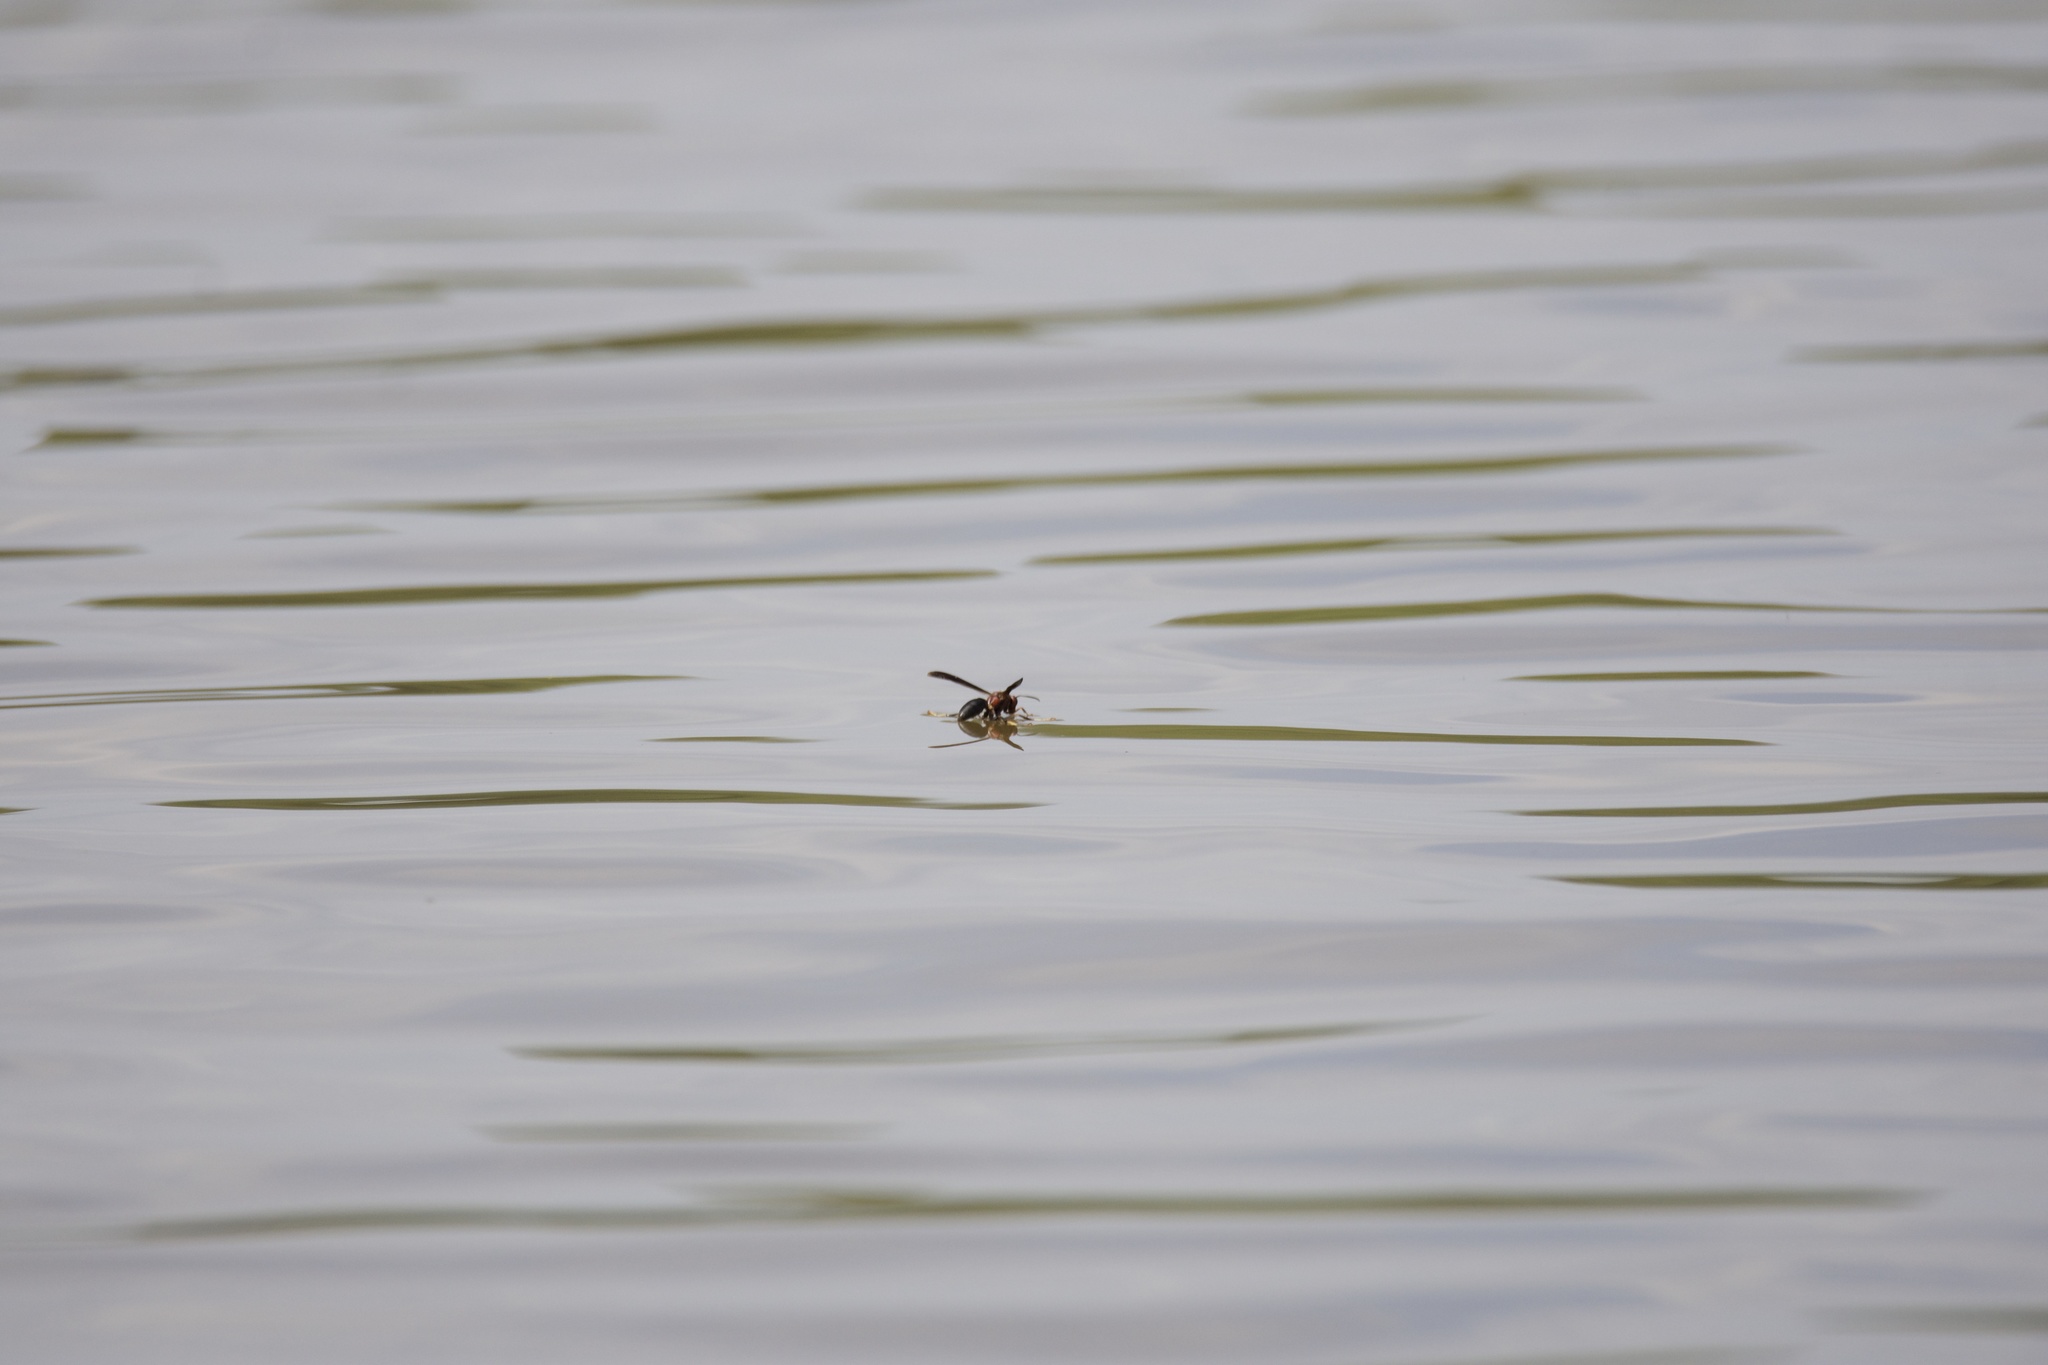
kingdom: Animalia
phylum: Arthropoda
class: Insecta
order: Hymenoptera
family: Eumenidae
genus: Polistes
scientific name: Polistes metricus
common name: Metric paper wasp
